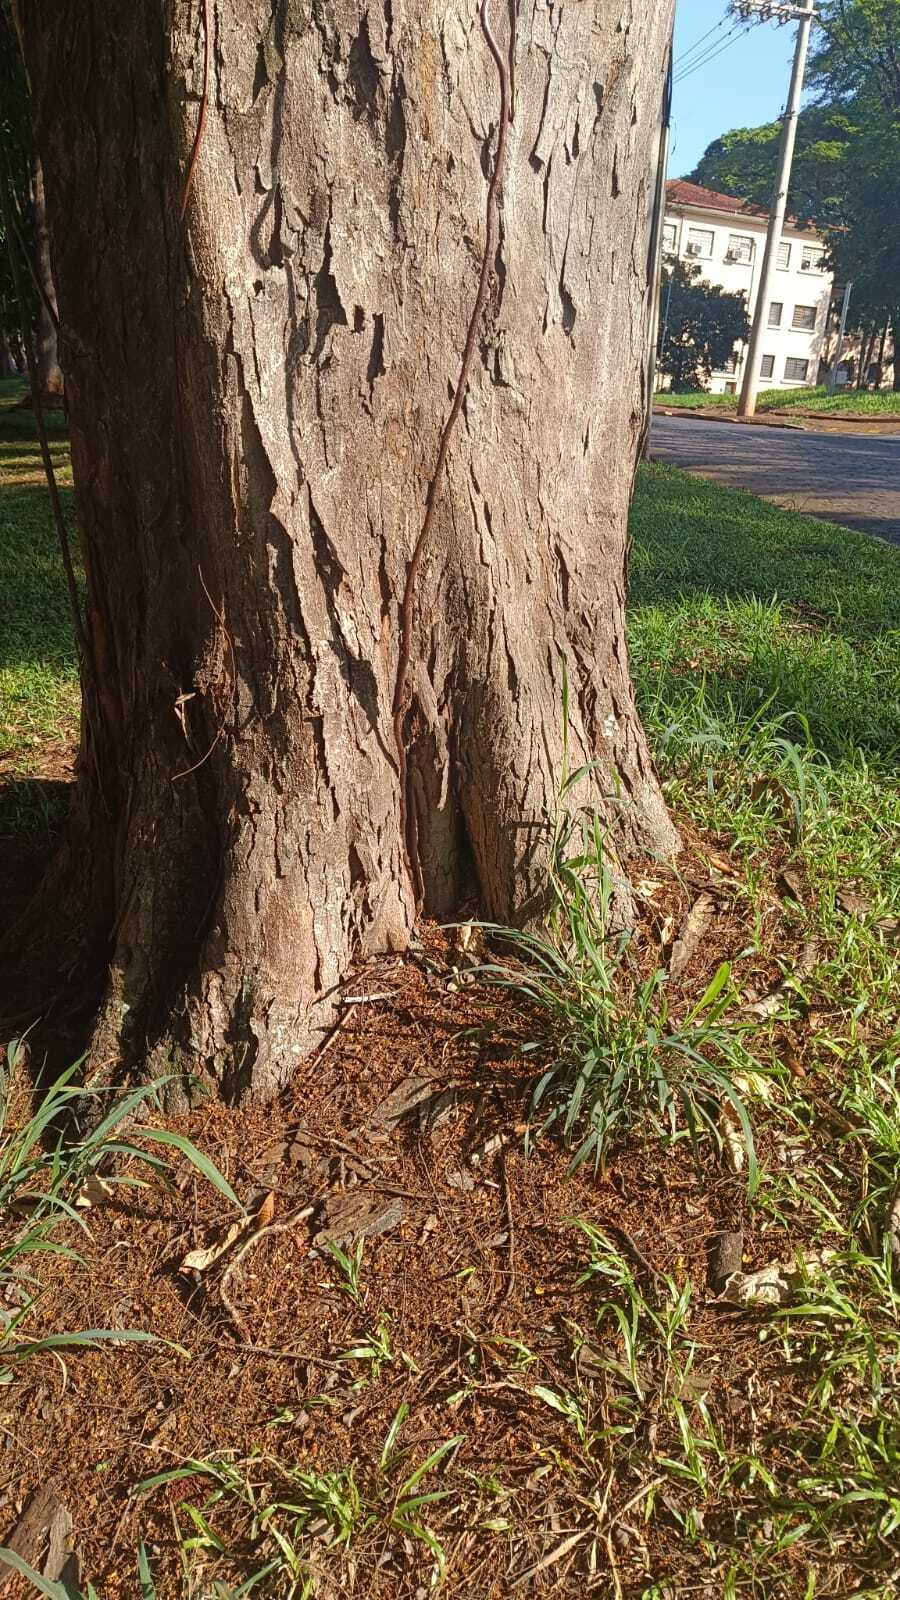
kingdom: Animalia
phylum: Arthropoda
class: Insecta
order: Hymenoptera
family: Apidae
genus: Tetragonisca
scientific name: Tetragonisca angustula
